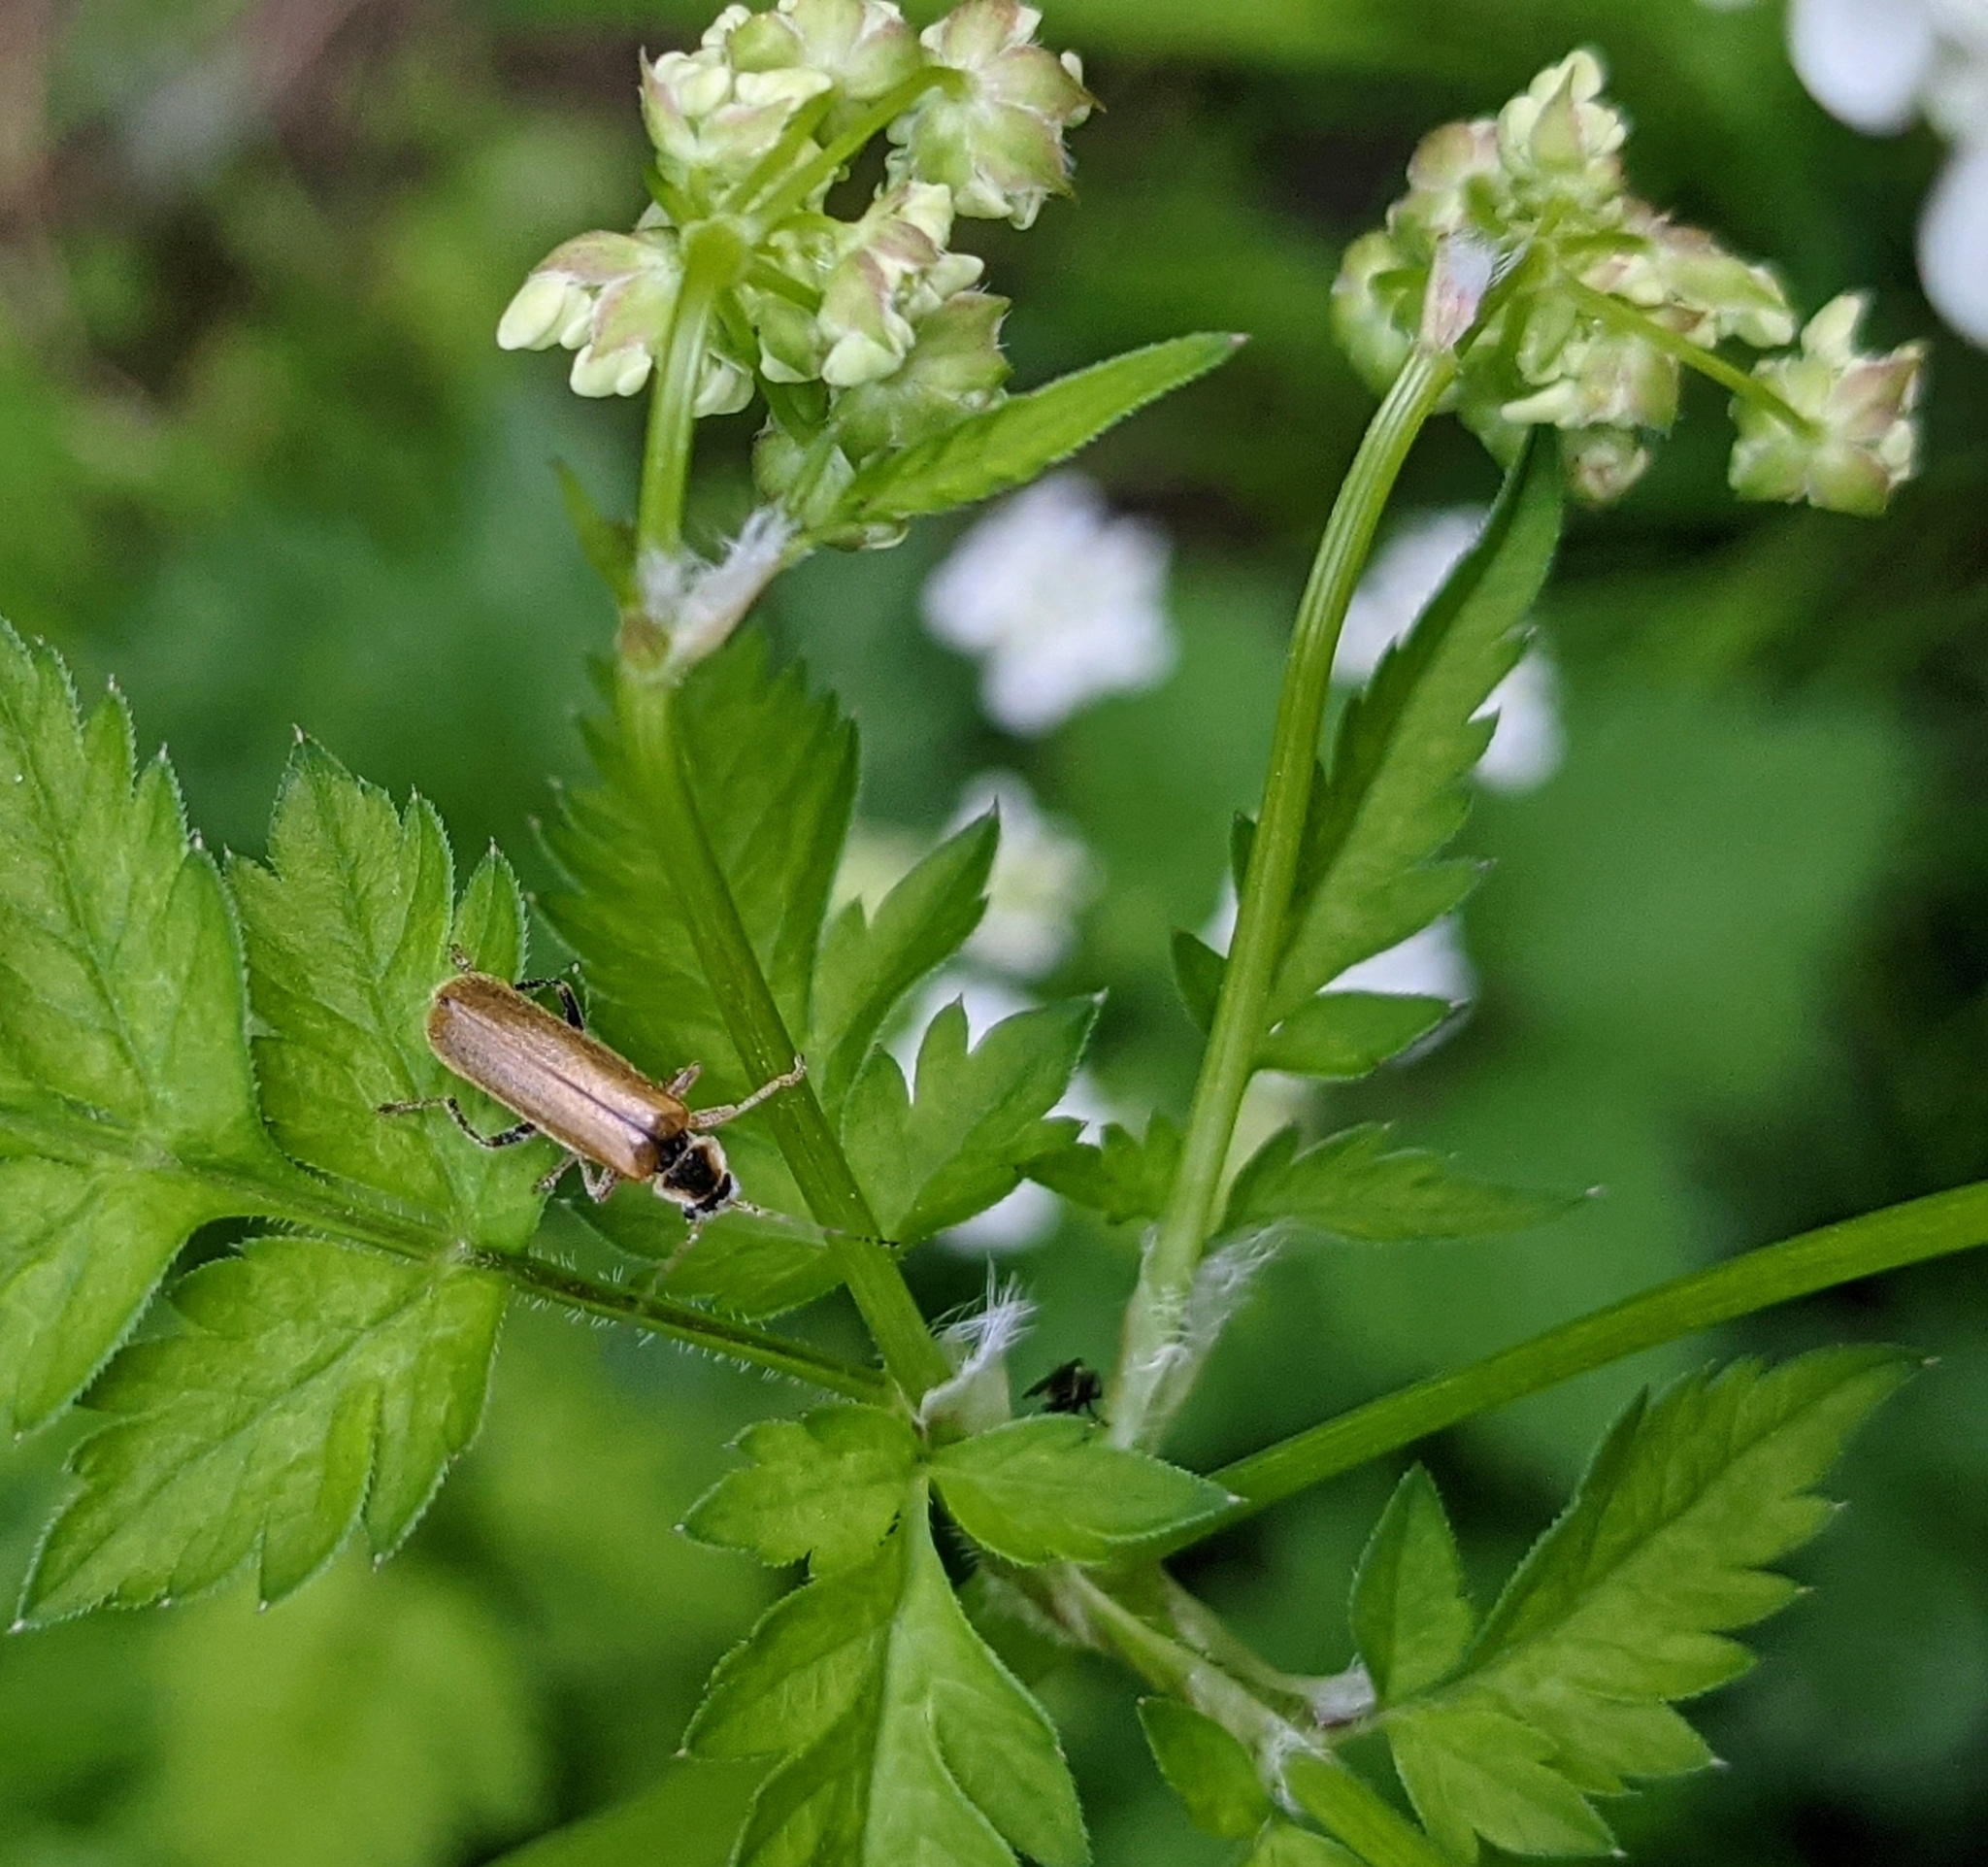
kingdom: Animalia
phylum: Arthropoda
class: Insecta
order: Coleoptera
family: Cantharidae
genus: Cantharis
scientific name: Cantharis decipiens
